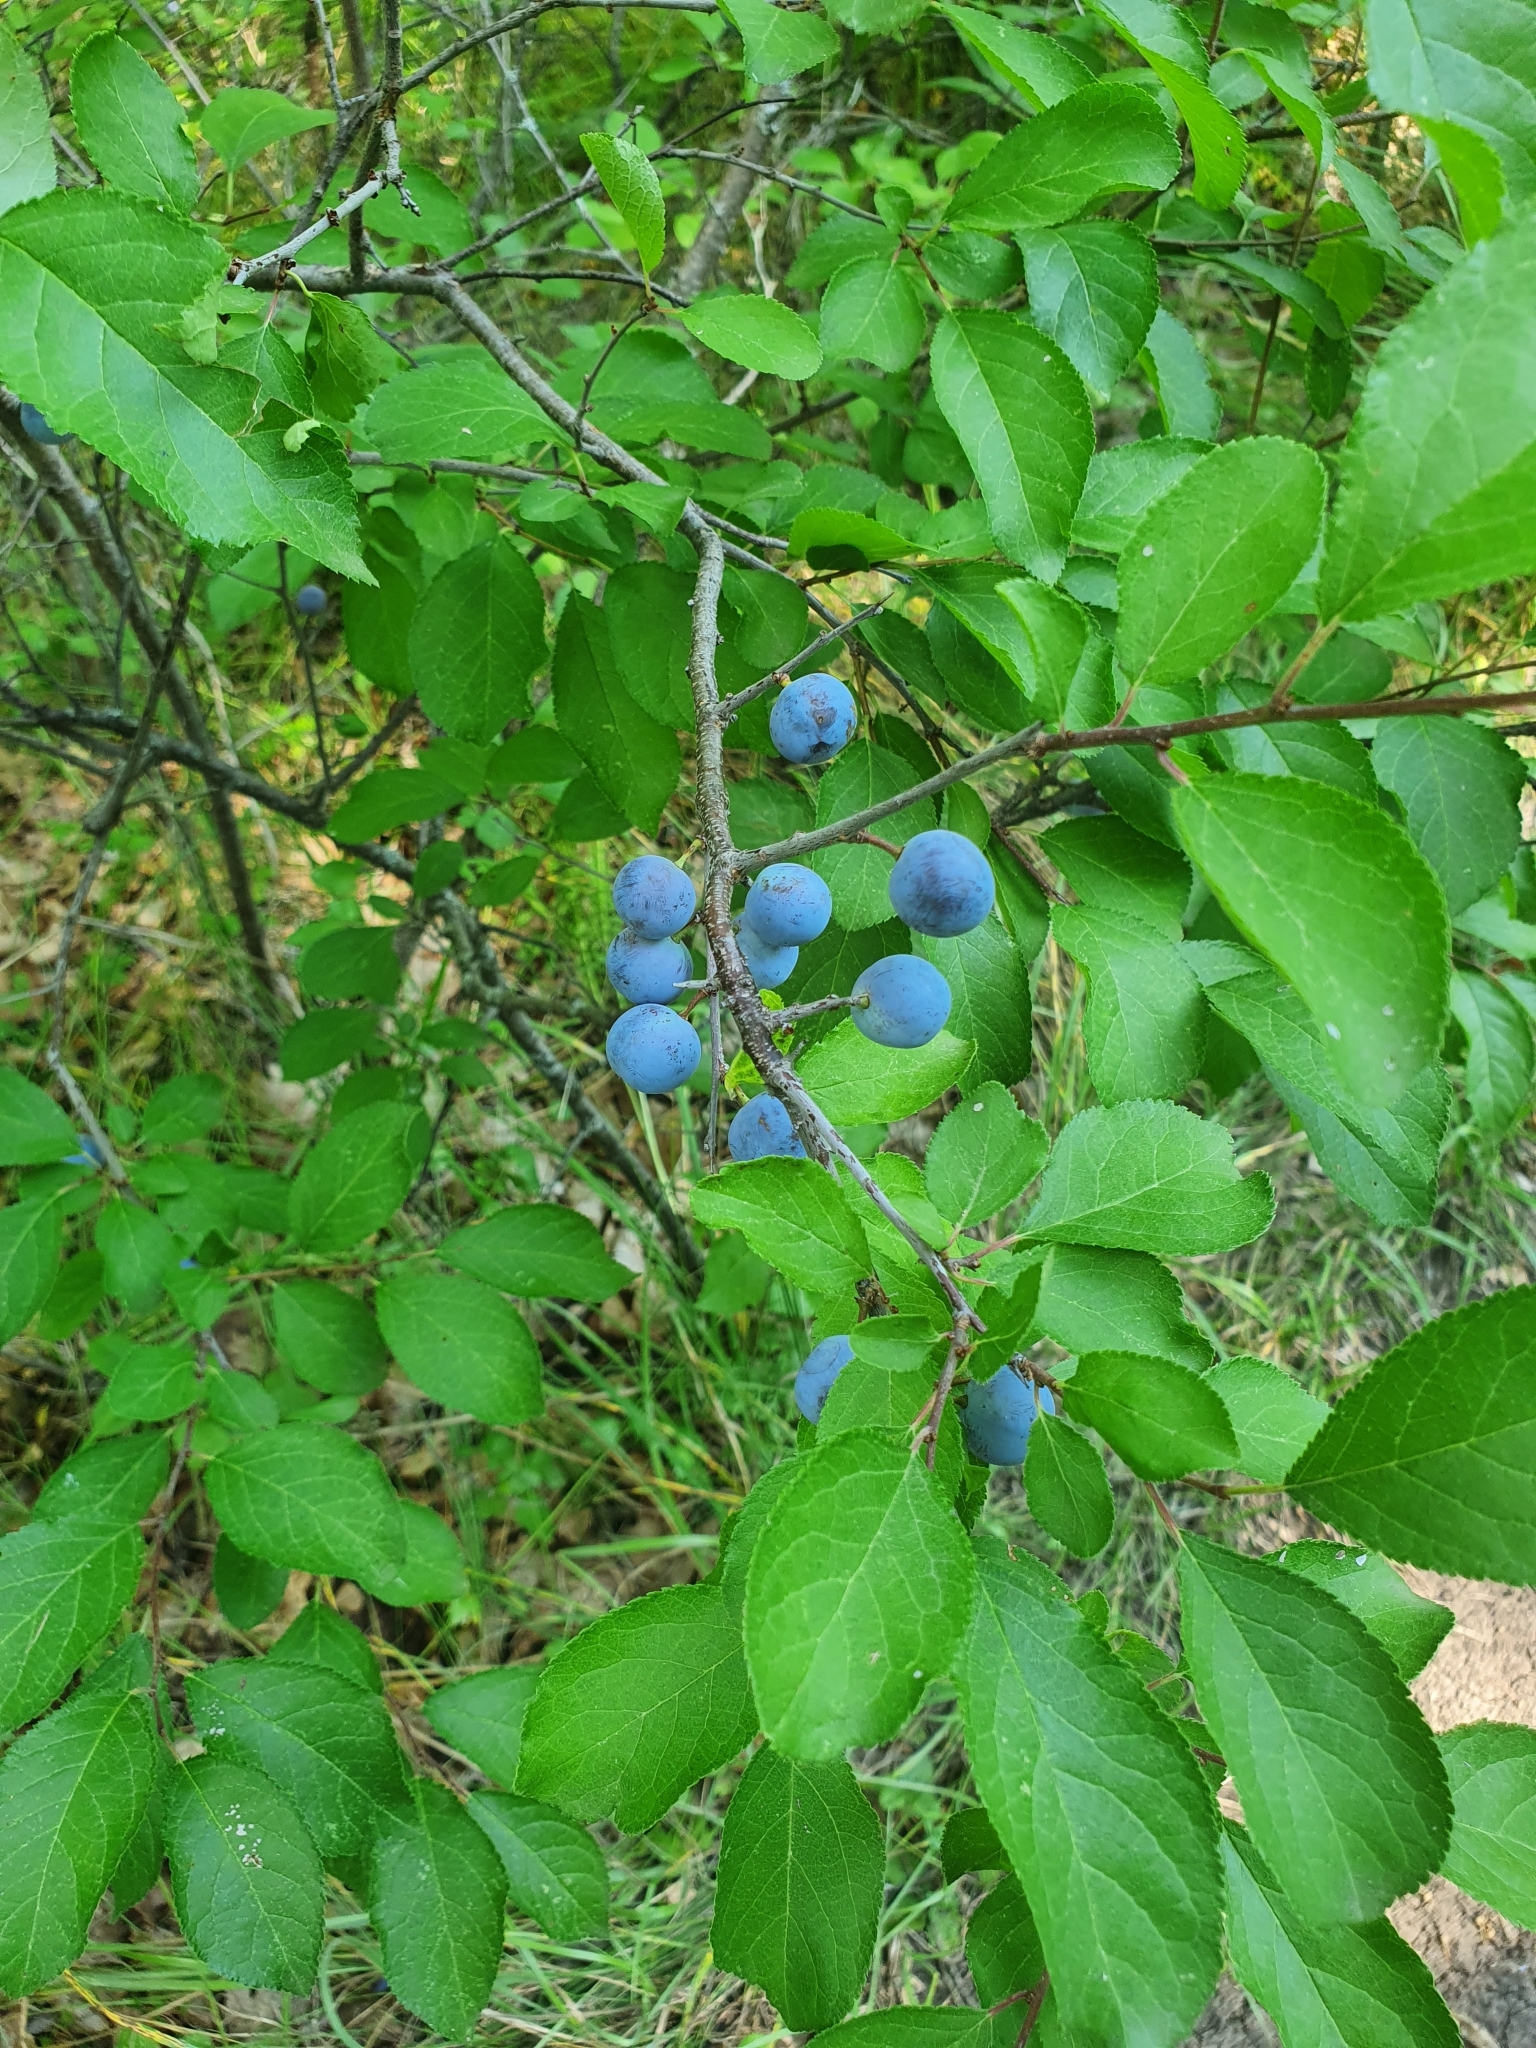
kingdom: Plantae
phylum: Tracheophyta
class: Magnoliopsida
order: Rosales
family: Rosaceae
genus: Prunus
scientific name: Prunus spinosa
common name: Blackthorn
